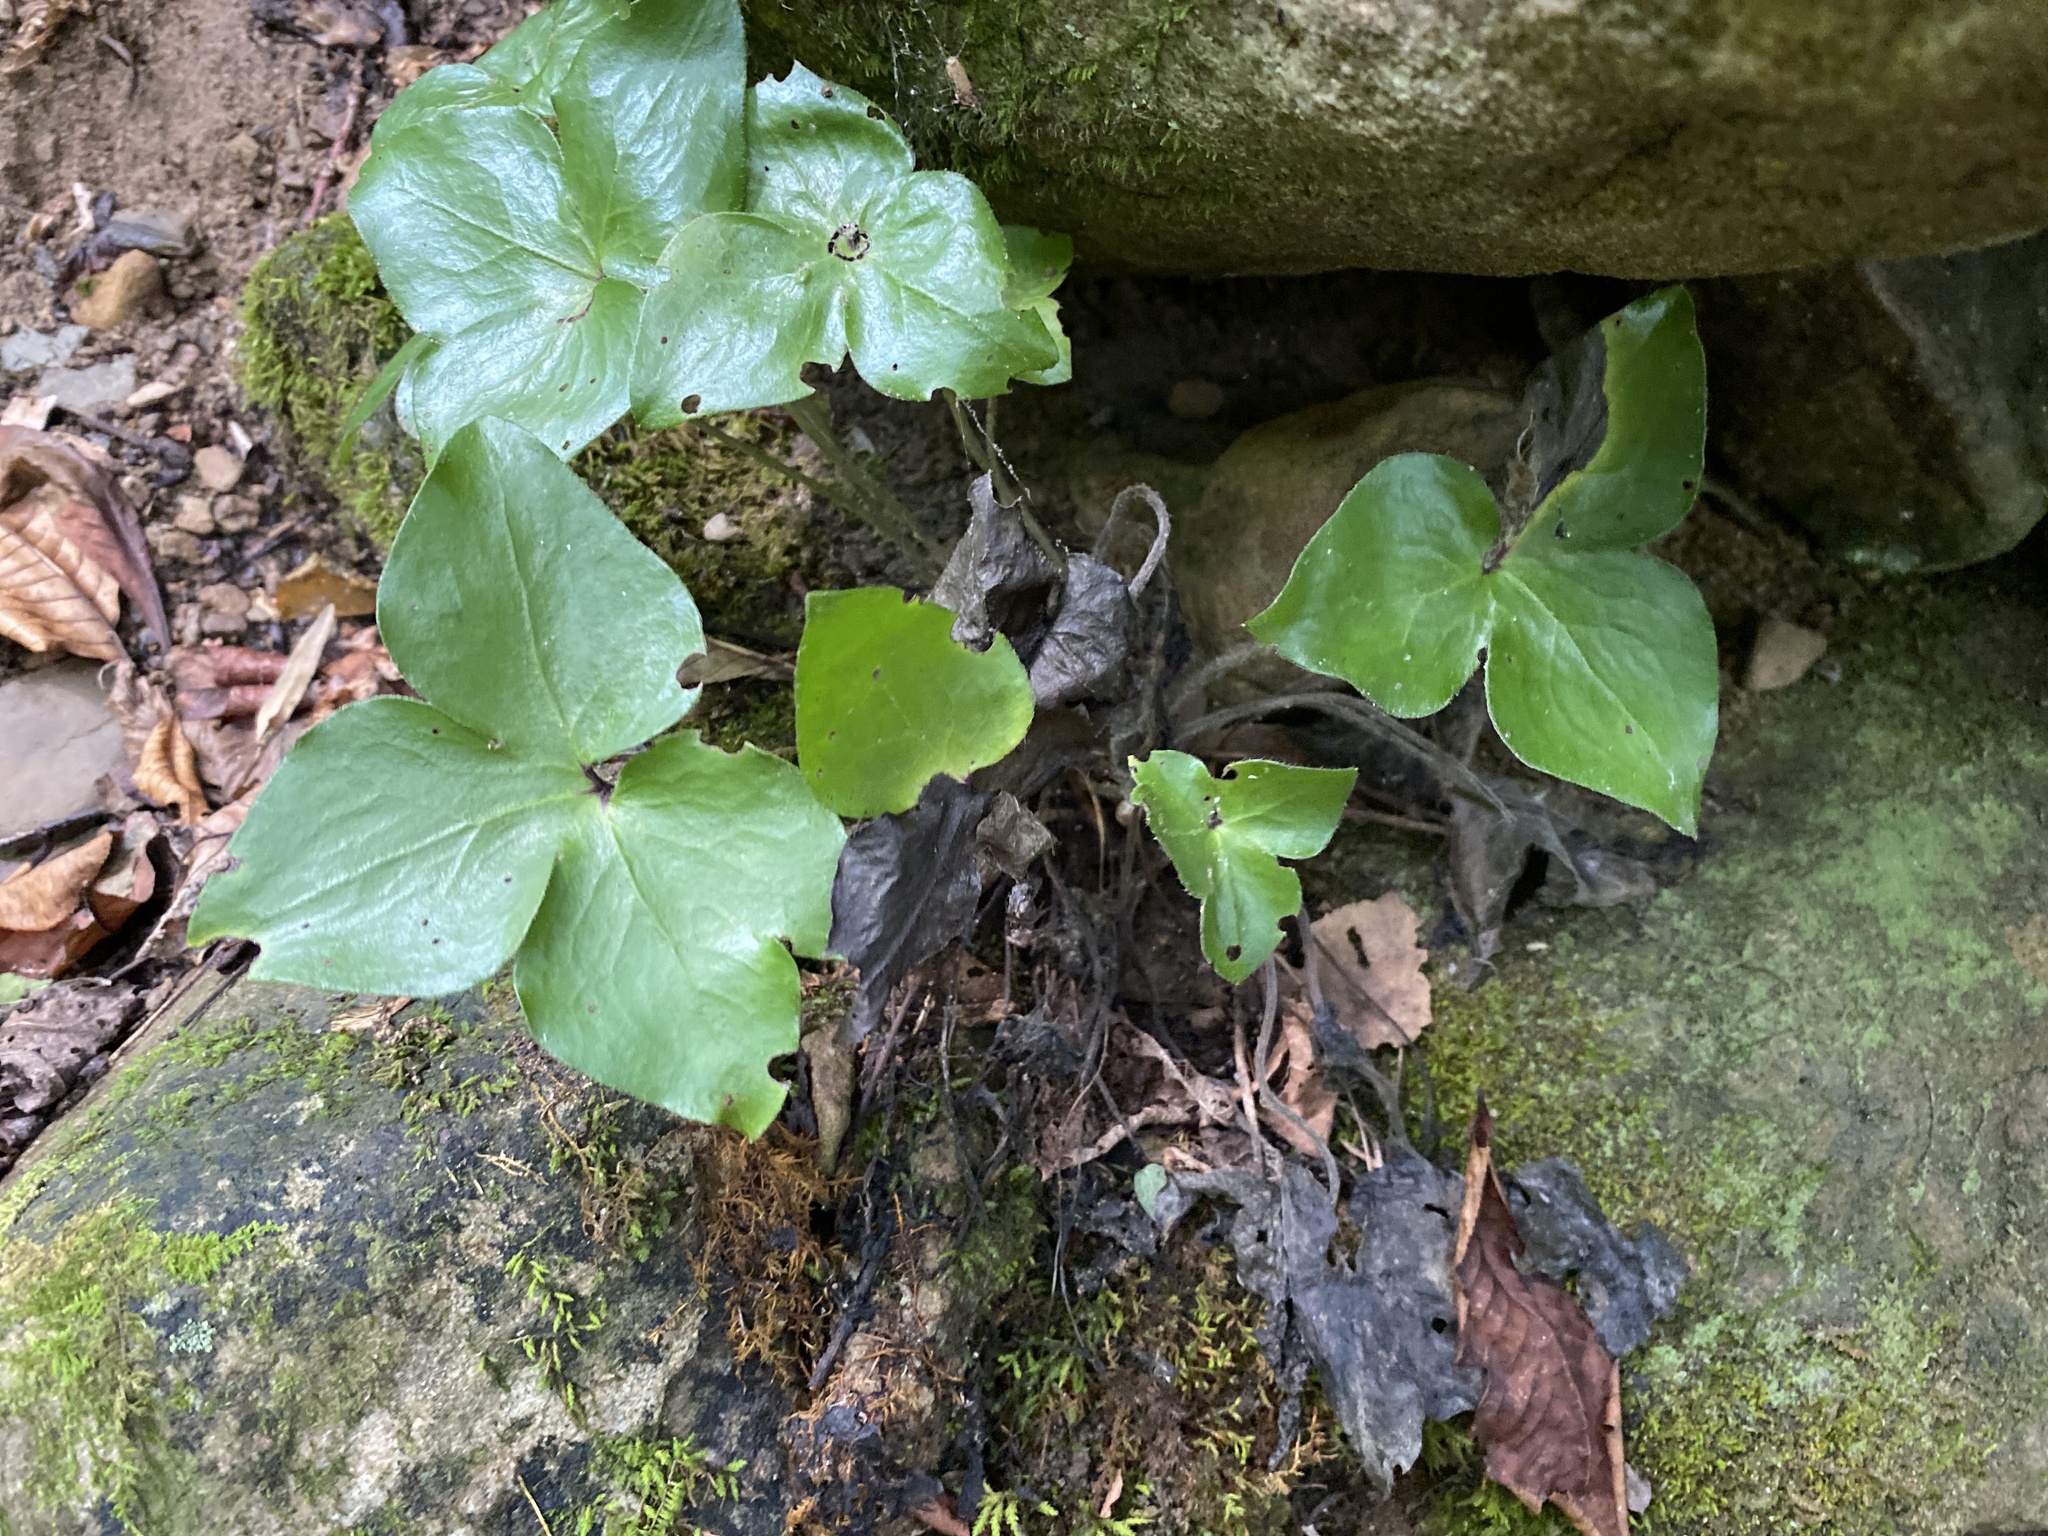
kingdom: Plantae
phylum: Tracheophyta
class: Magnoliopsida
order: Ranunculales
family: Ranunculaceae
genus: Hepatica
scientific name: Hepatica acutiloba
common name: Sharp-lobed hepatica
